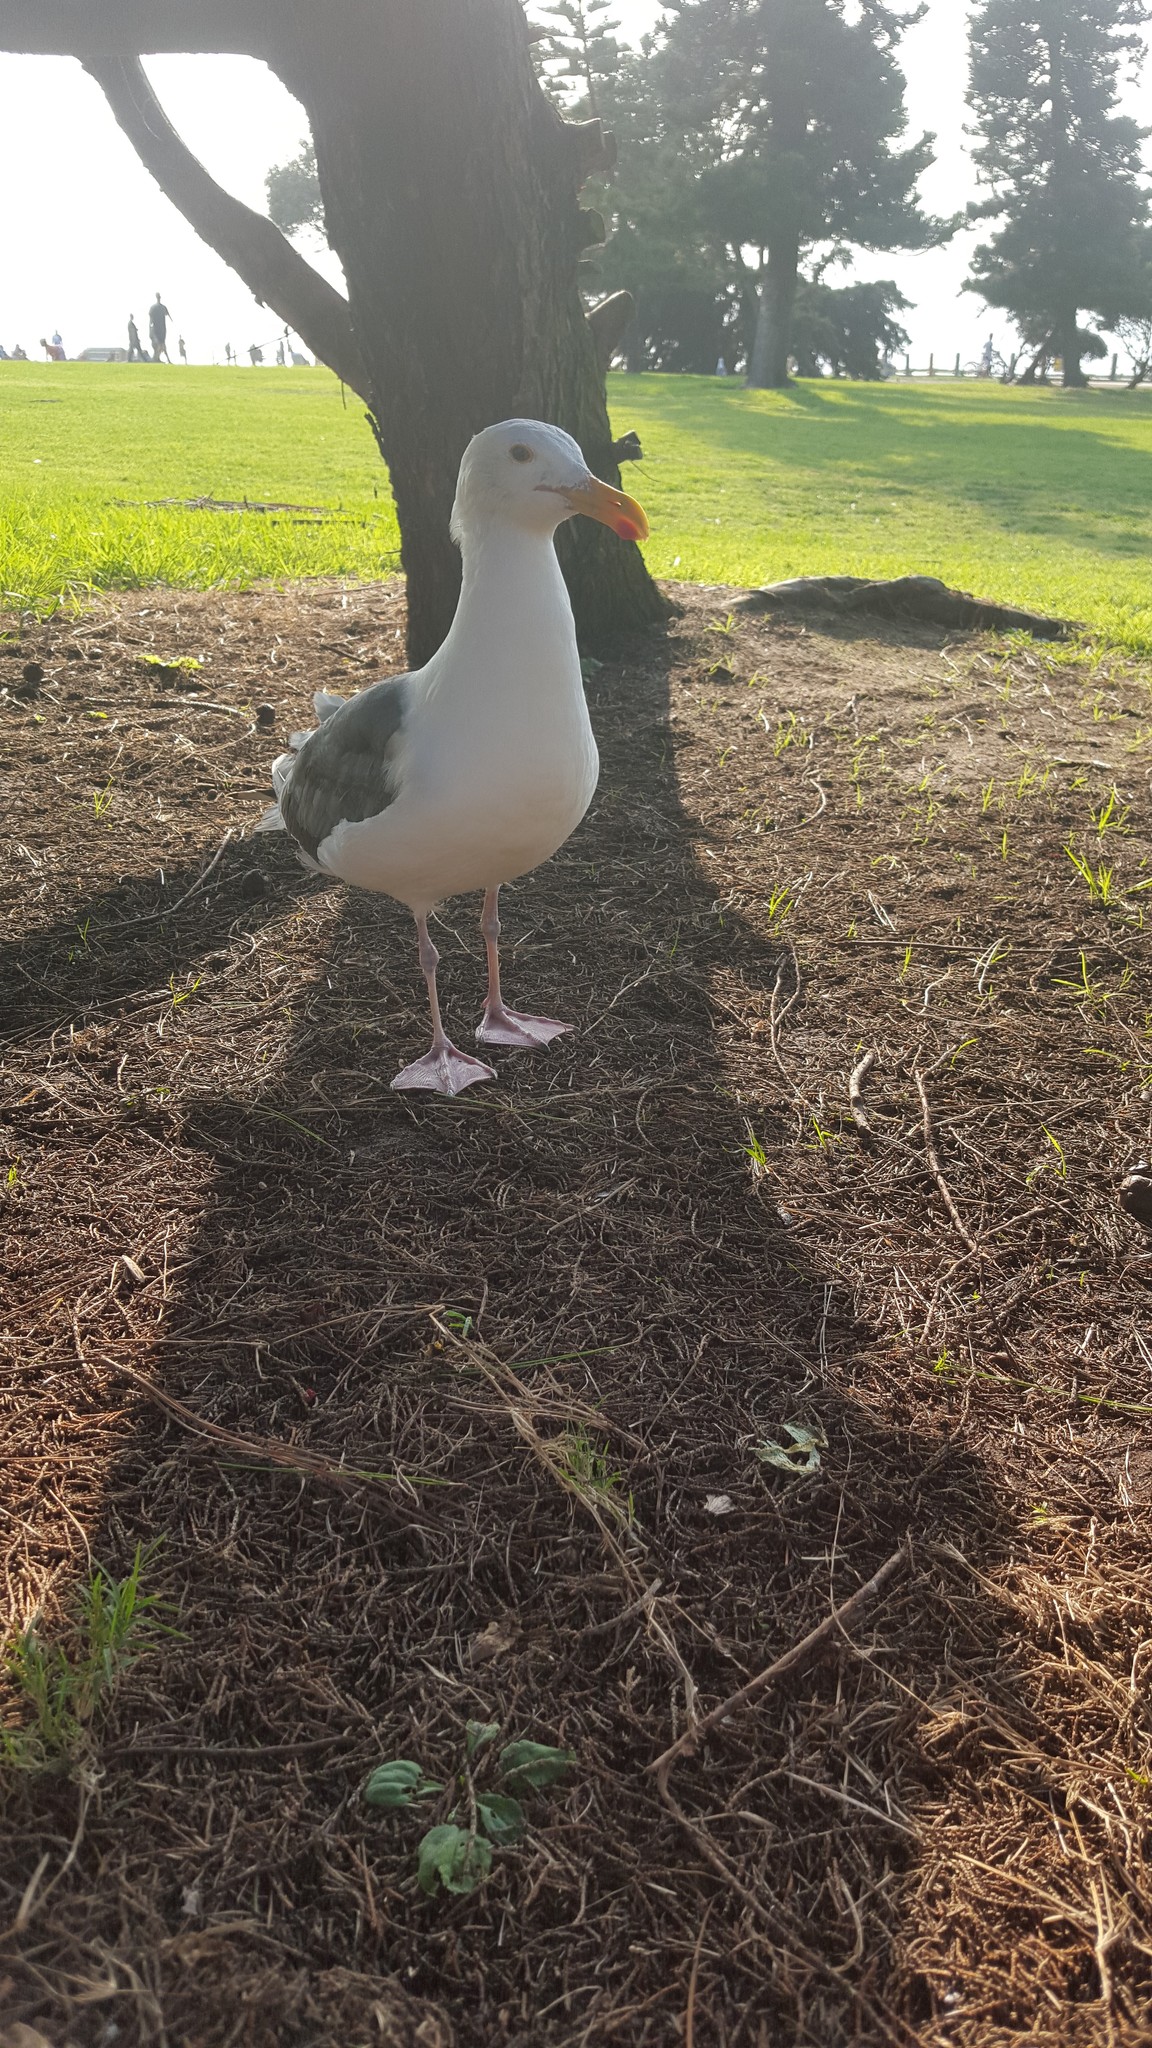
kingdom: Animalia
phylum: Chordata
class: Aves
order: Charadriiformes
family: Laridae
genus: Larus
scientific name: Larus occidentalis
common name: Western gull
